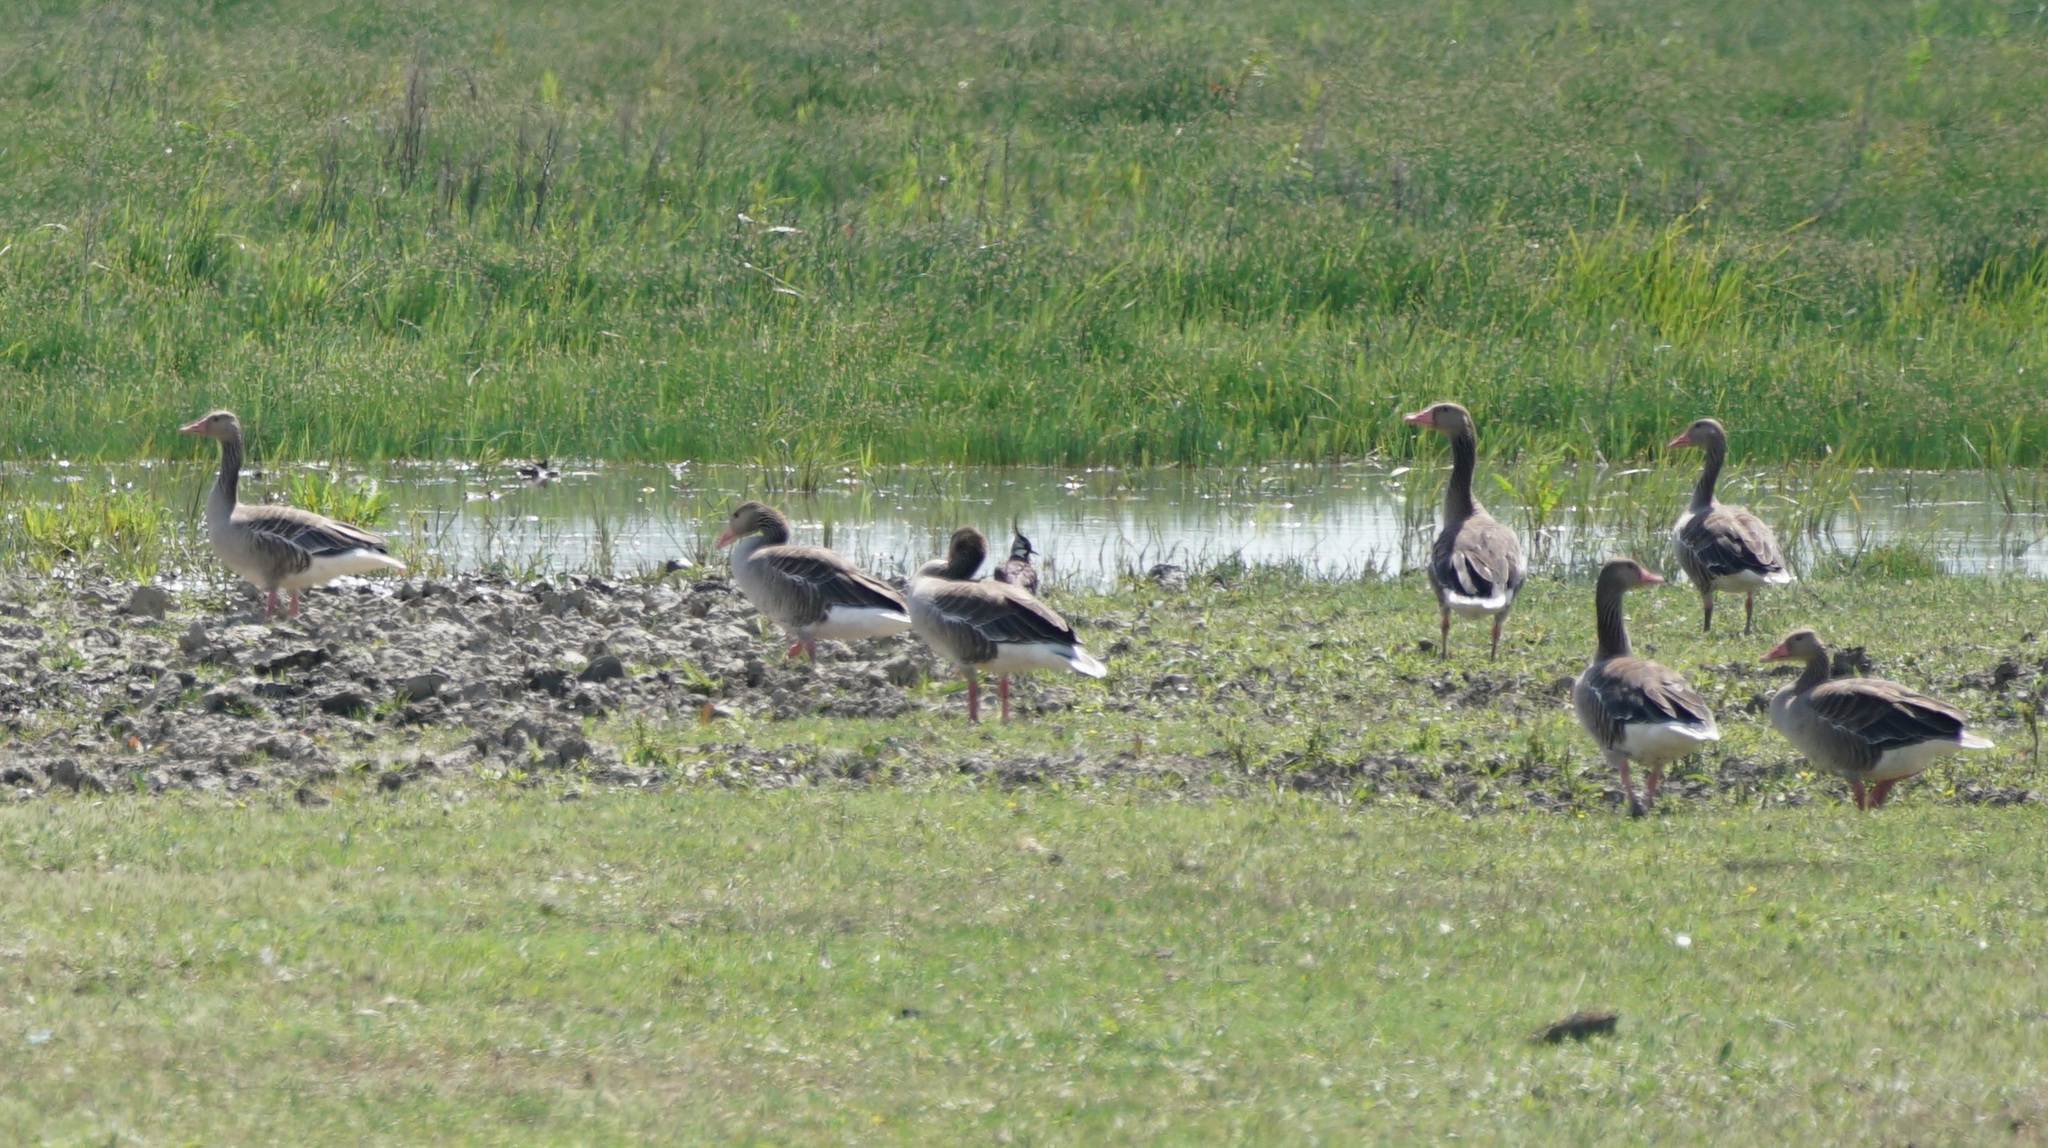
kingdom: Animalia
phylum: Chordata
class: Aves
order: Anseriformes
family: Anatidae
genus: Anser
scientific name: Anser anser
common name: Greylag goose
